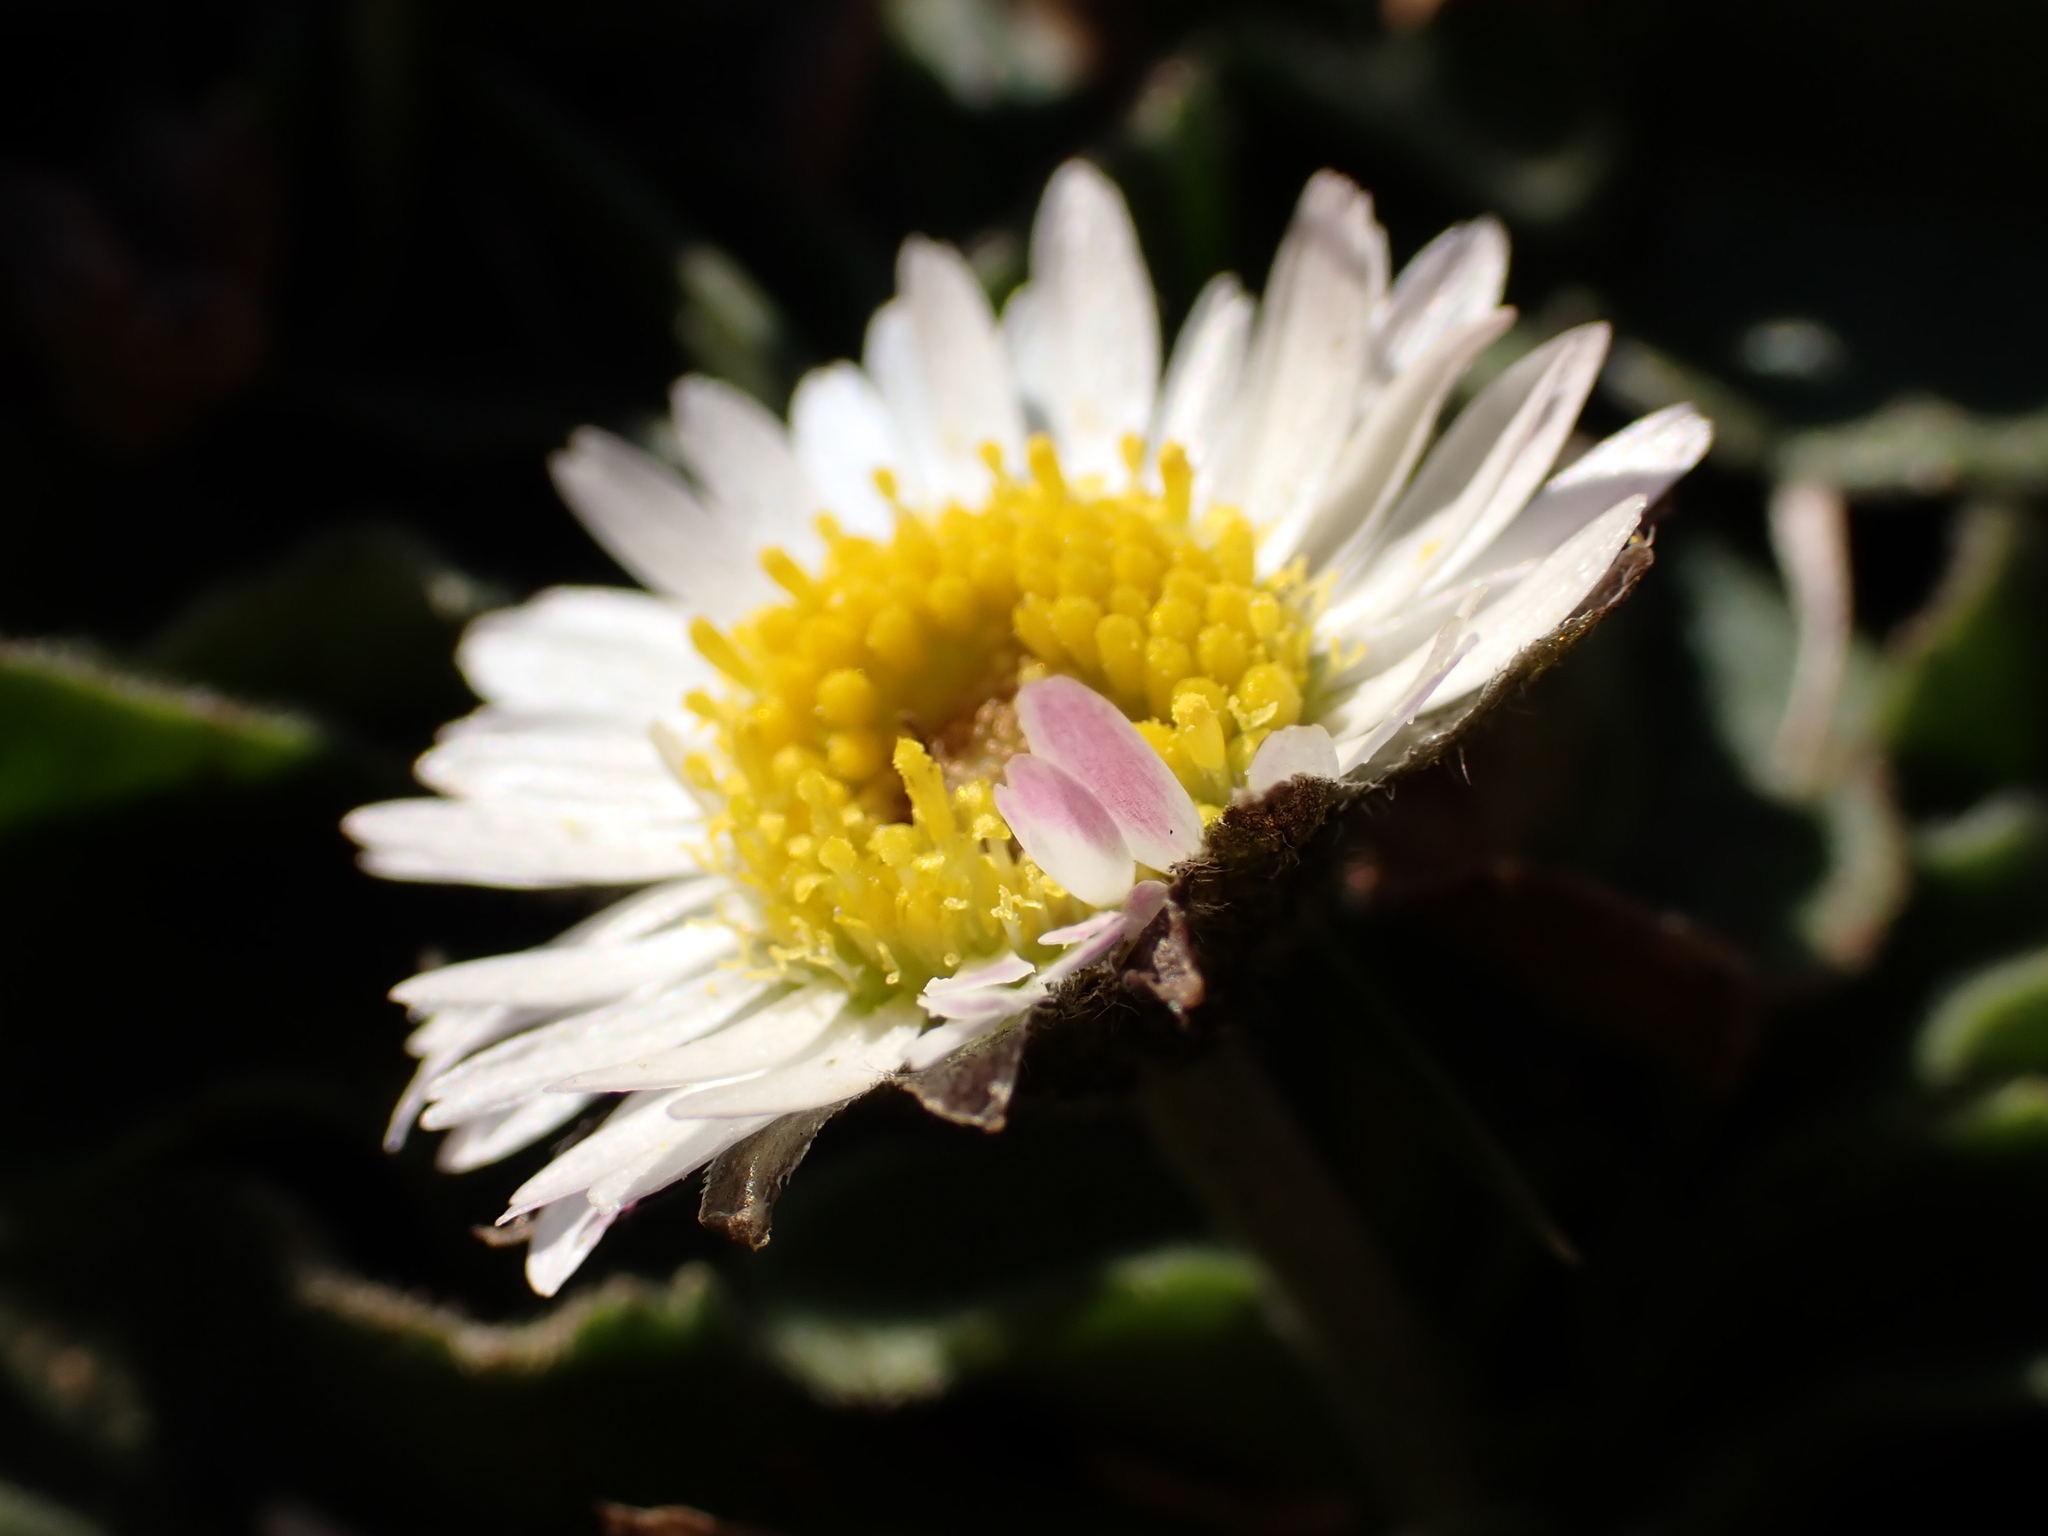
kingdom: Plantae
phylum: Tracheophyta
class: Magnoliopsida
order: Asterales
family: Asteraceae
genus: Bellis
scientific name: Bellis sylvestris
